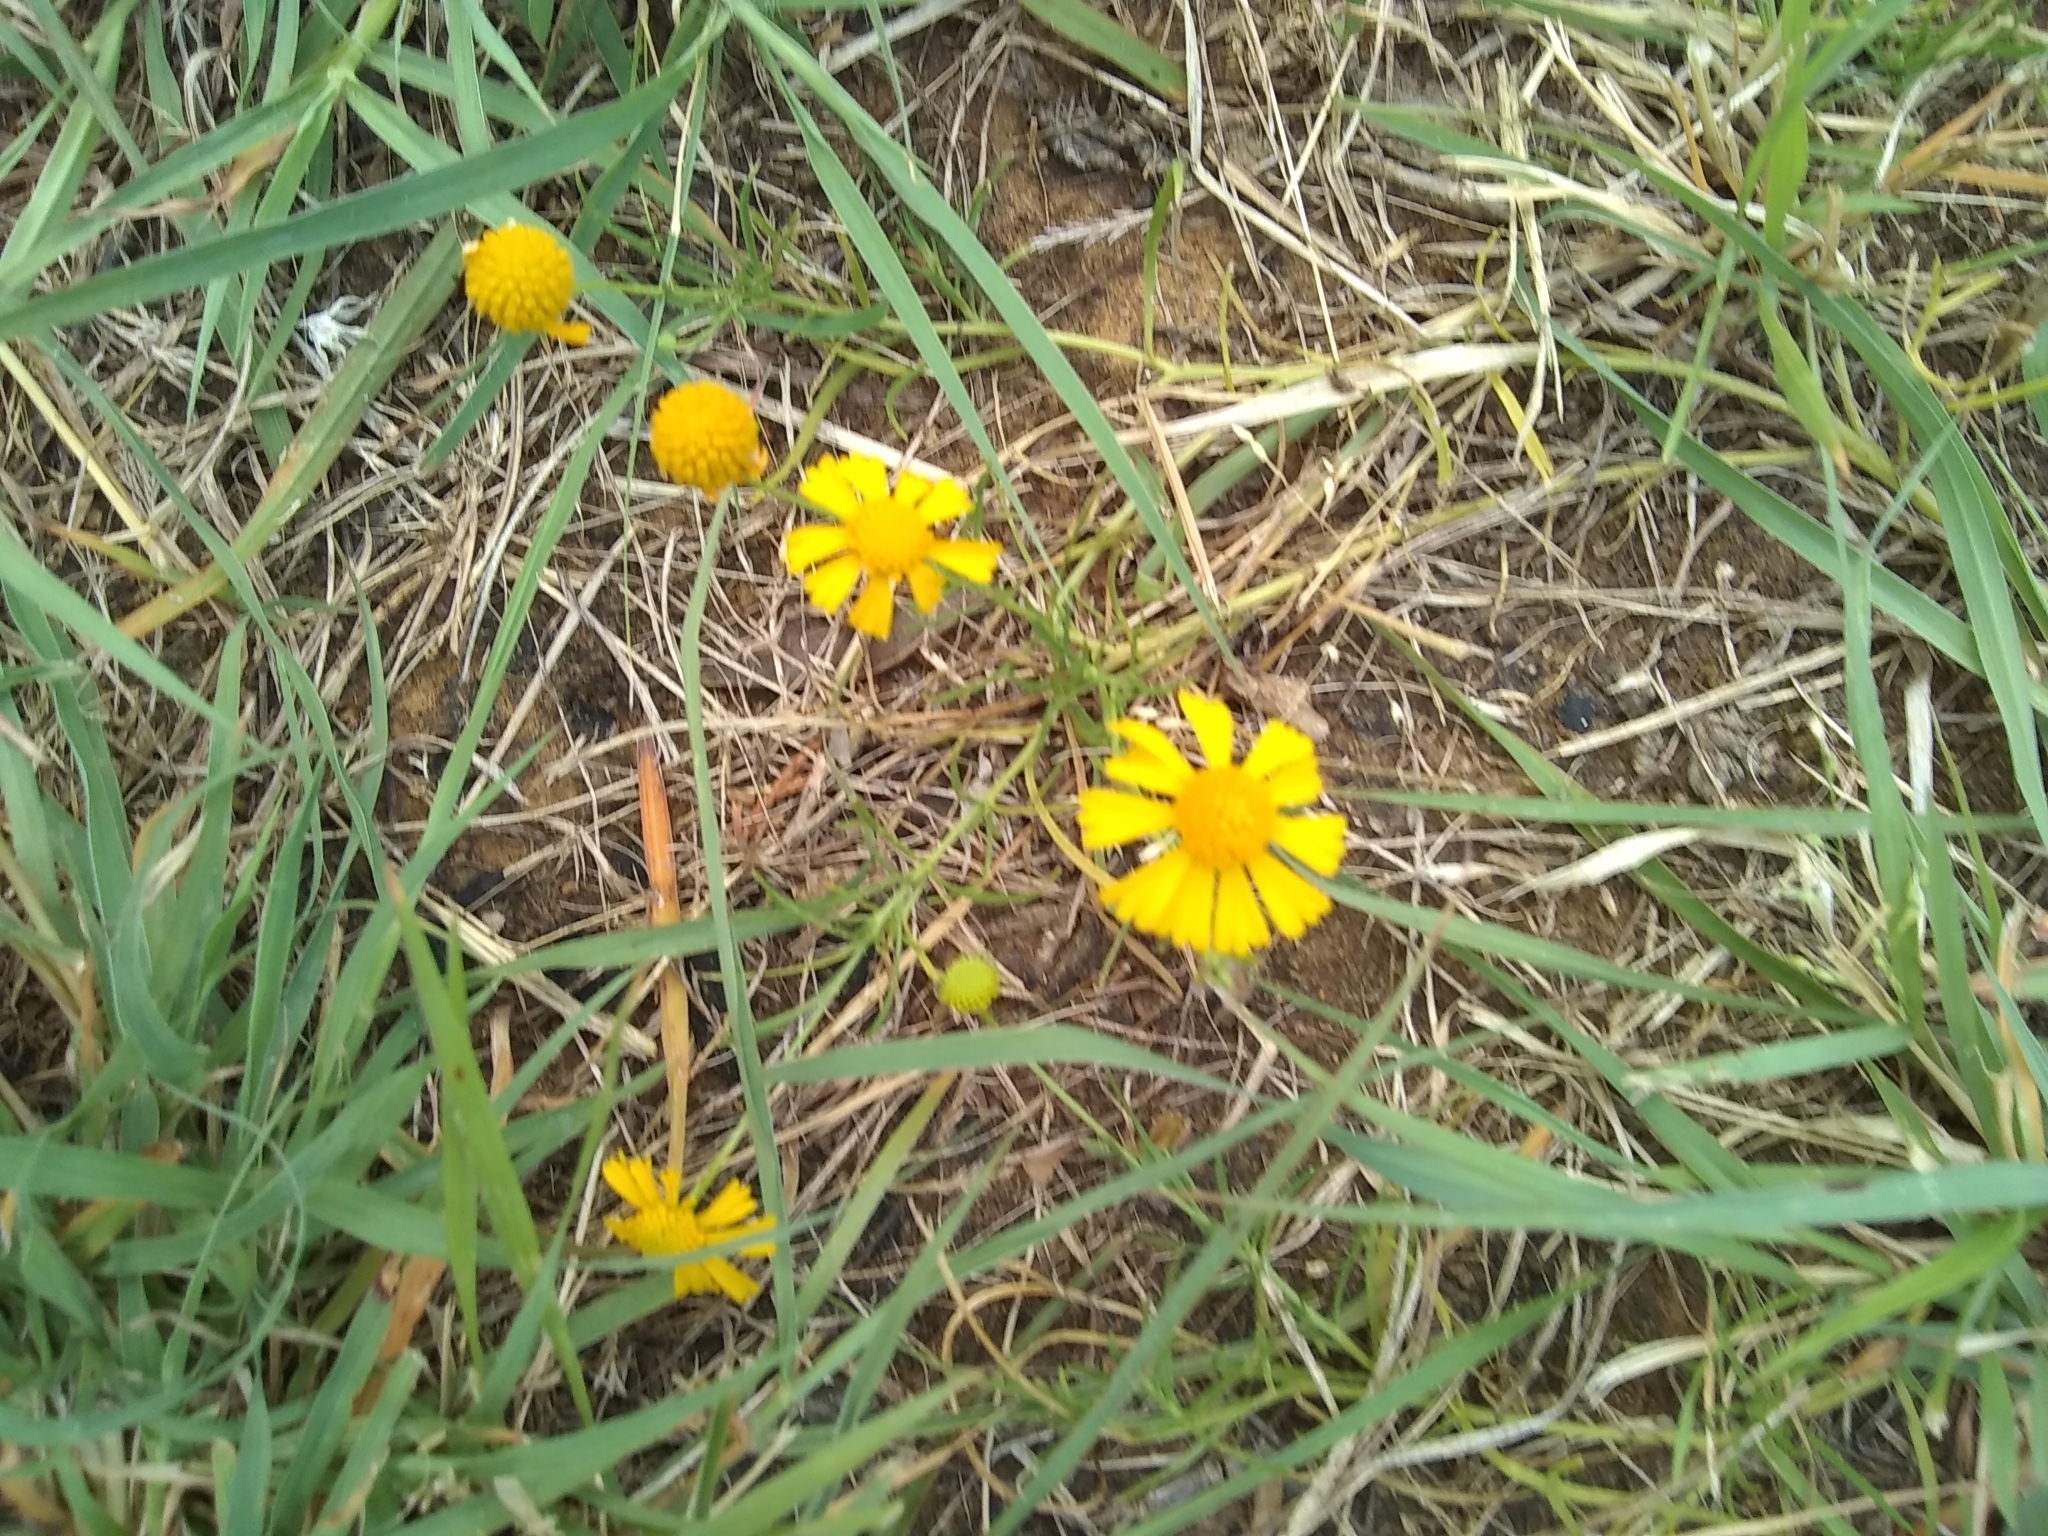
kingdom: Plantae
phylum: Tracheophyta
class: Magnoliopsida
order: Asterales
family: Asteraceae
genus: Helenium
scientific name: Helenium amarum
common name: Bitter sneezeweed
